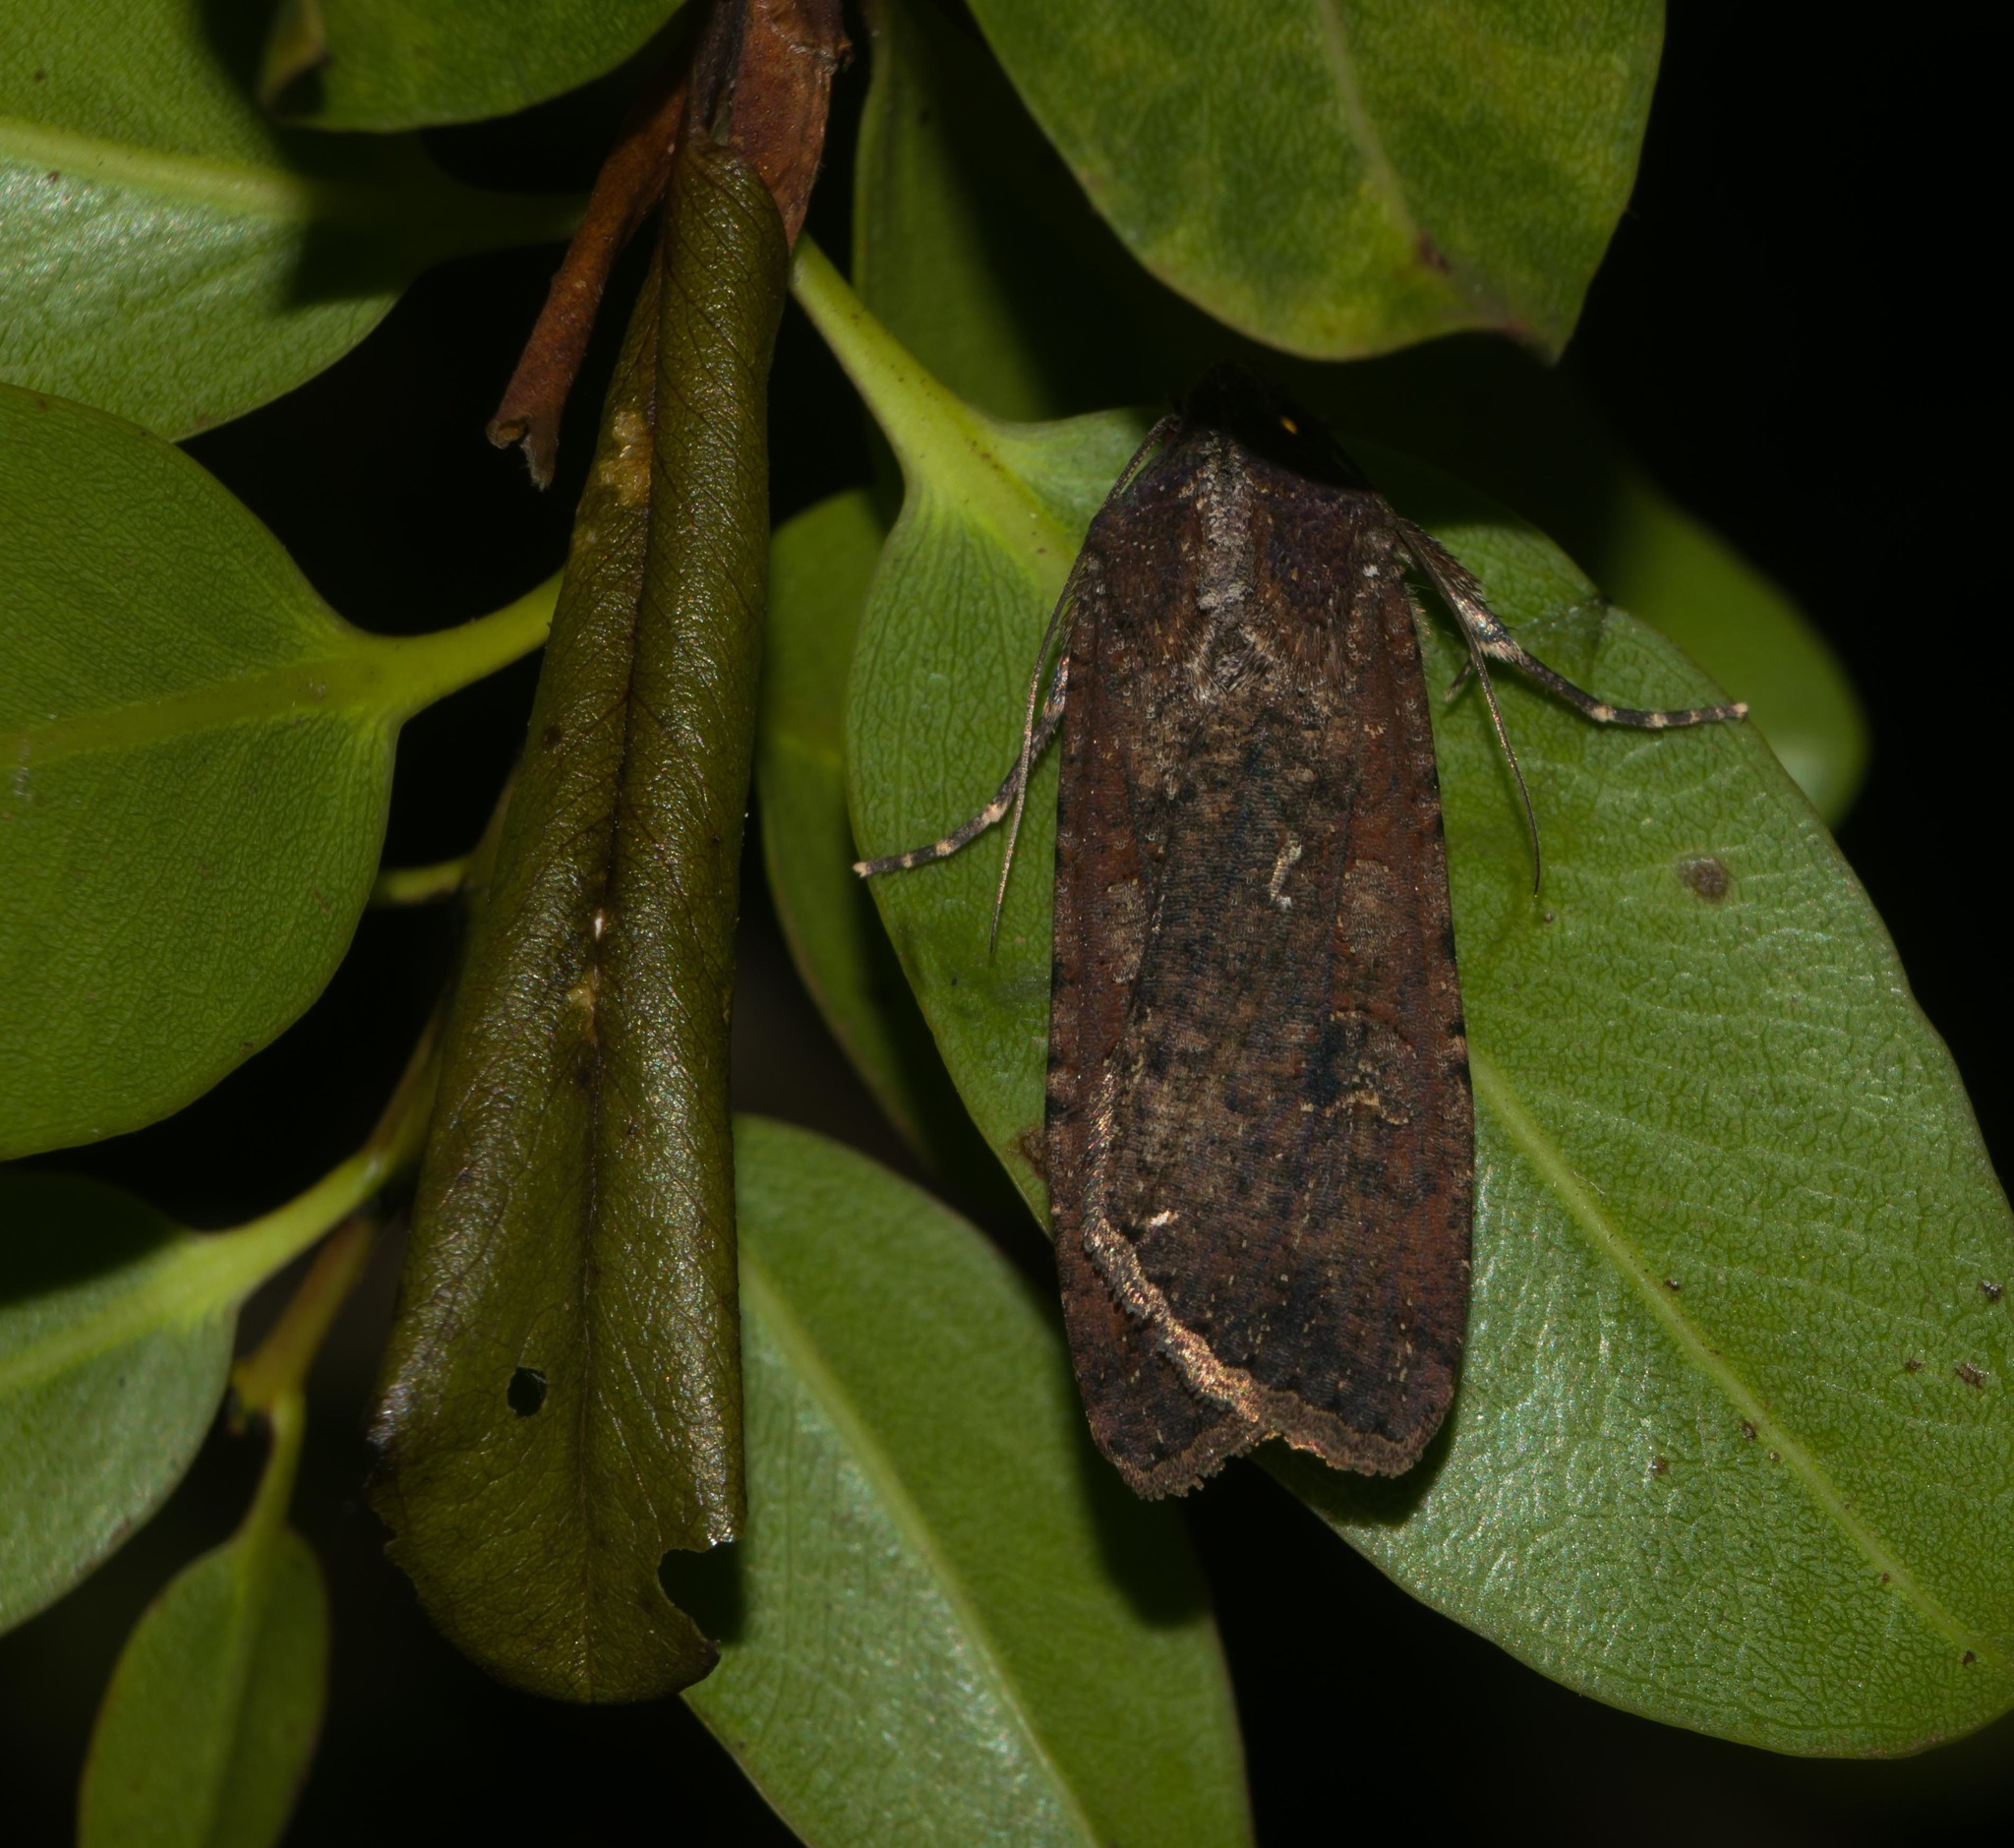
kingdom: Animalia
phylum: Arthropoda
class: Insecta
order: Lepidoptera
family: Noctuidae
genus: Peridroma
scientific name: Peridroma saucia
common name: Pearly underwing
